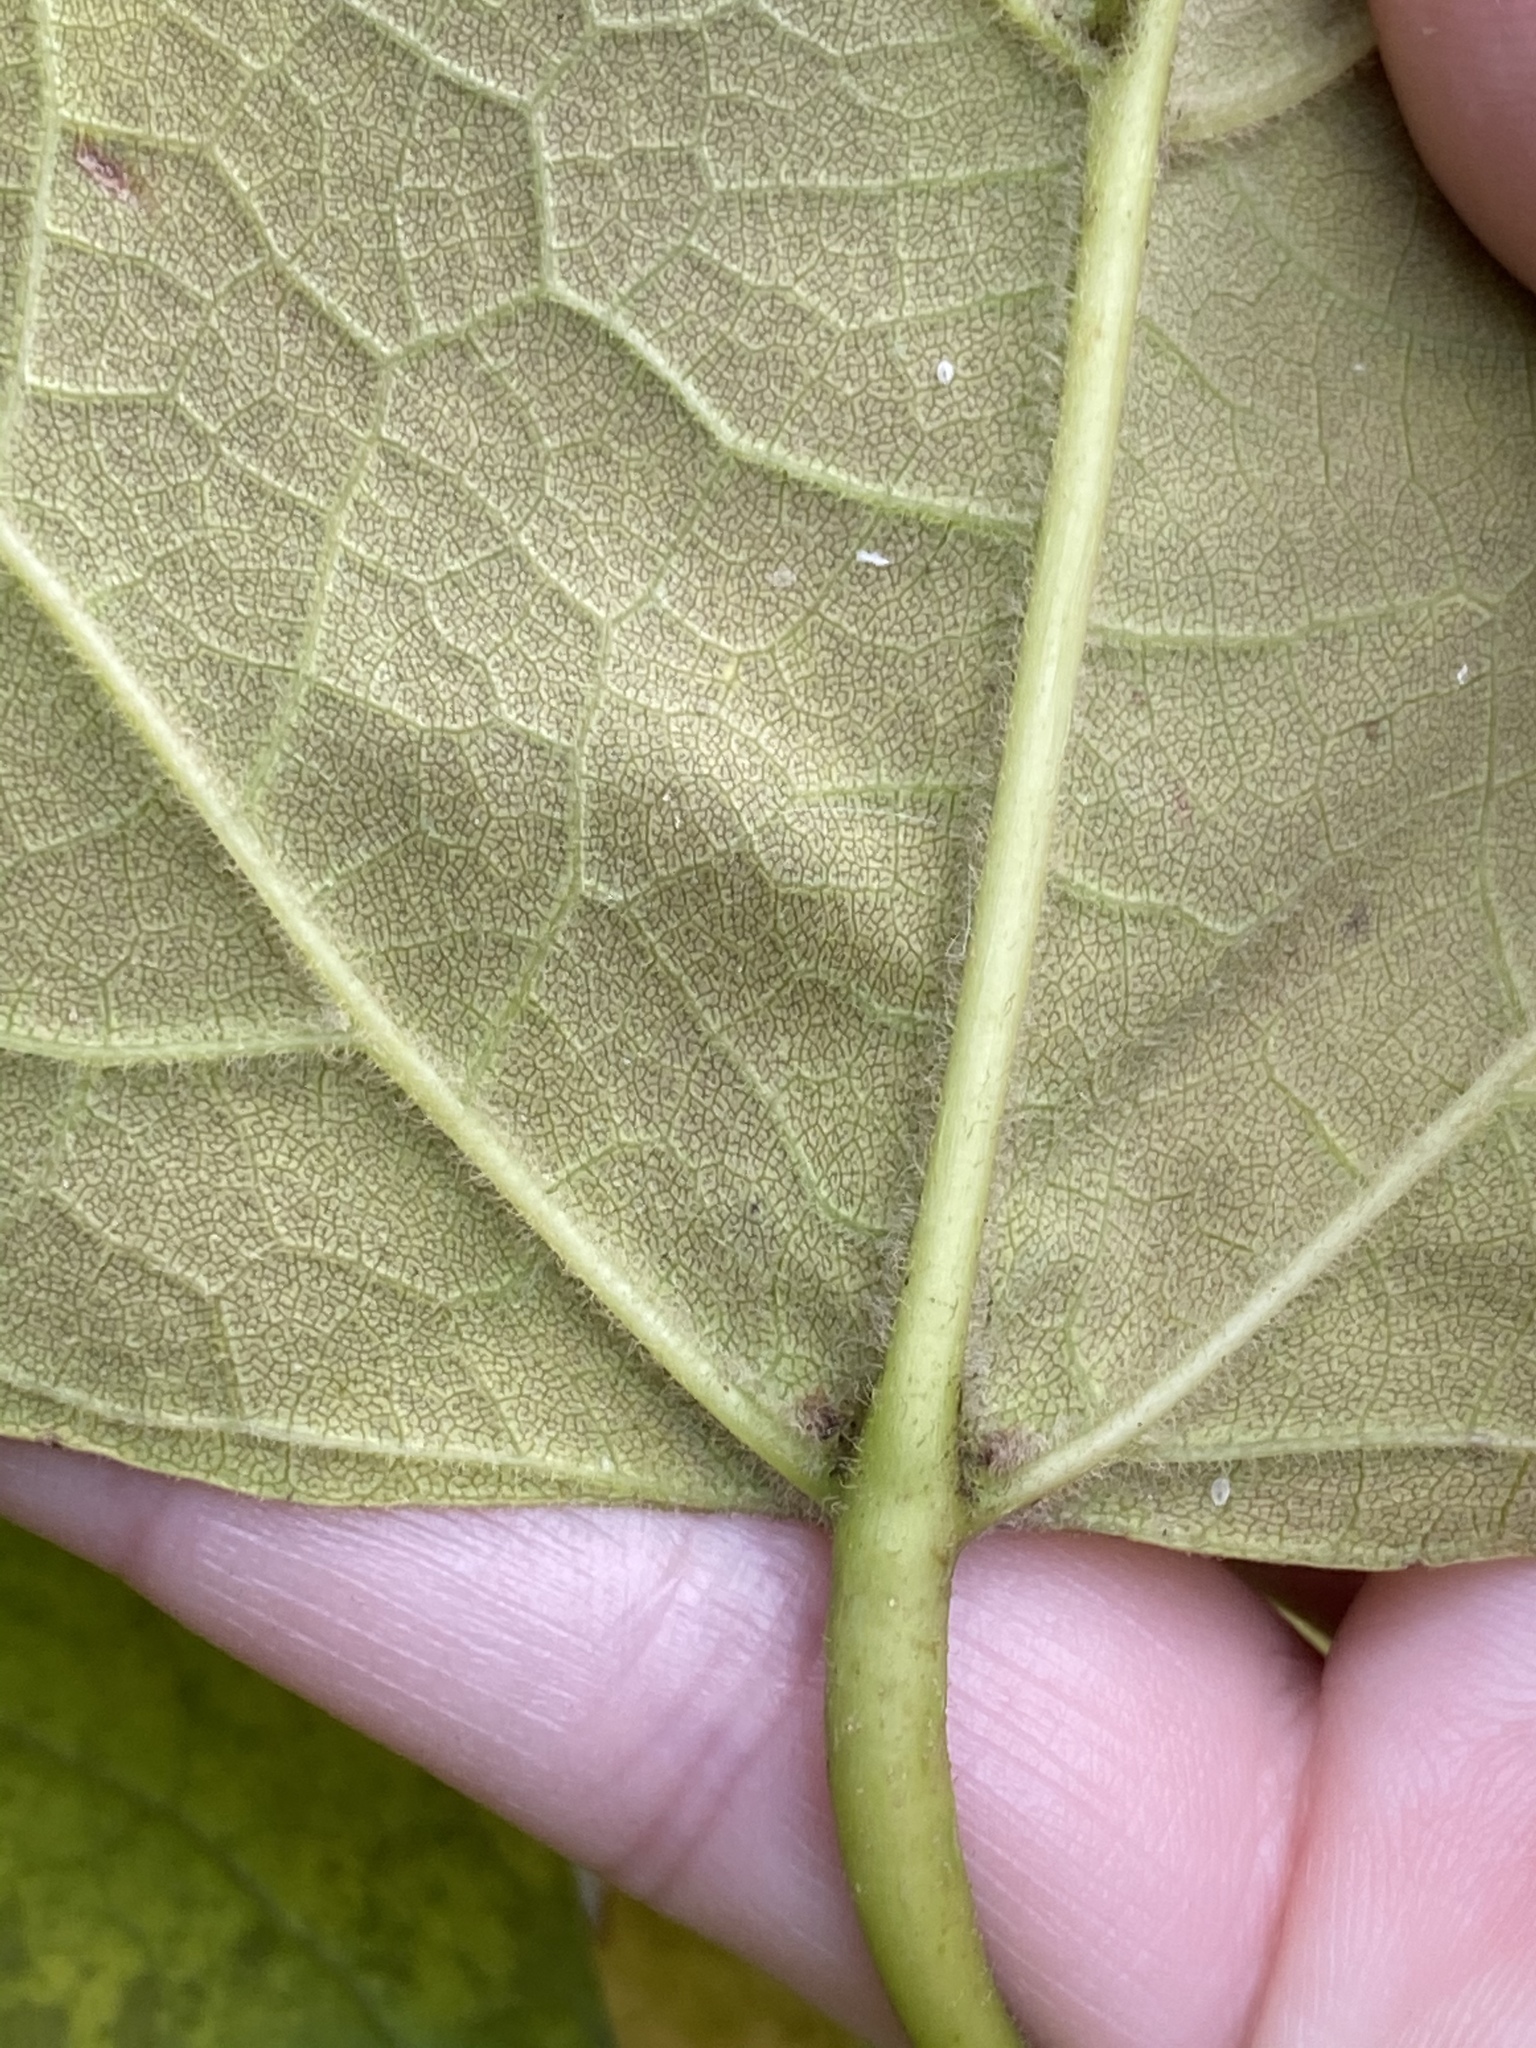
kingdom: Plantae
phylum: Tracheophyta
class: Magnoliopsida
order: Lamiales
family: Bignoniaceae
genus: Catalpa
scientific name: Catalpa speciosa
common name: Northern catalpa
